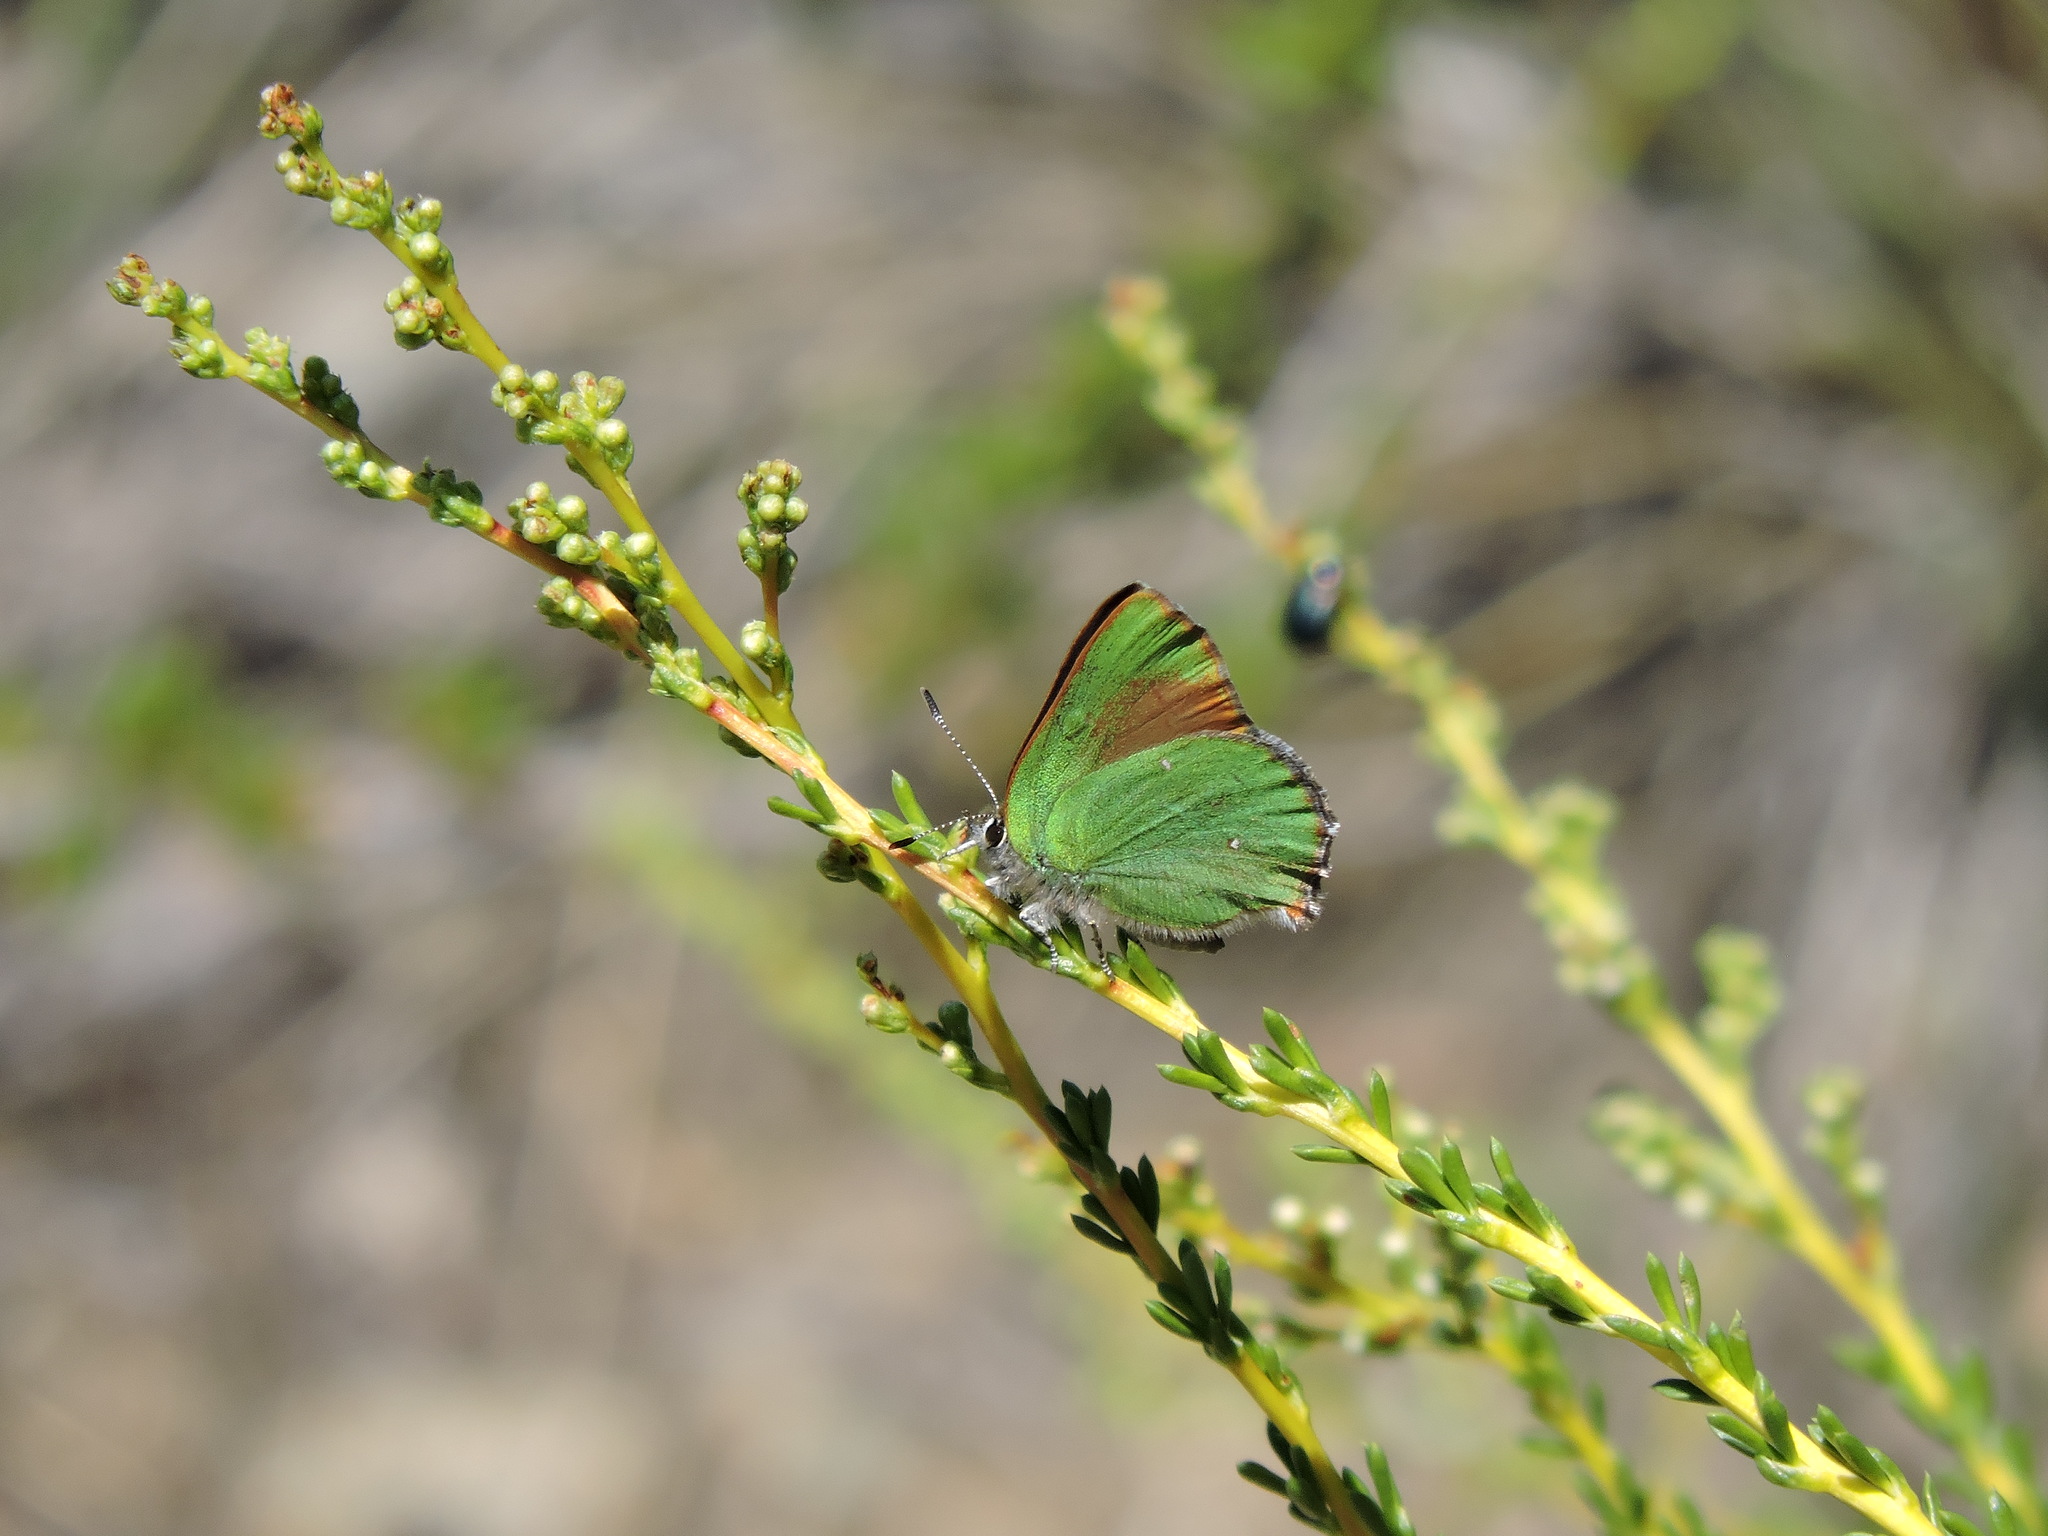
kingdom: Animalia
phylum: Arthropoda
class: Insecta
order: Lepidoptera
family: Lycaenidae
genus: Callophrys
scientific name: Callophrys dumetorum
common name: Bramble hairstreak
